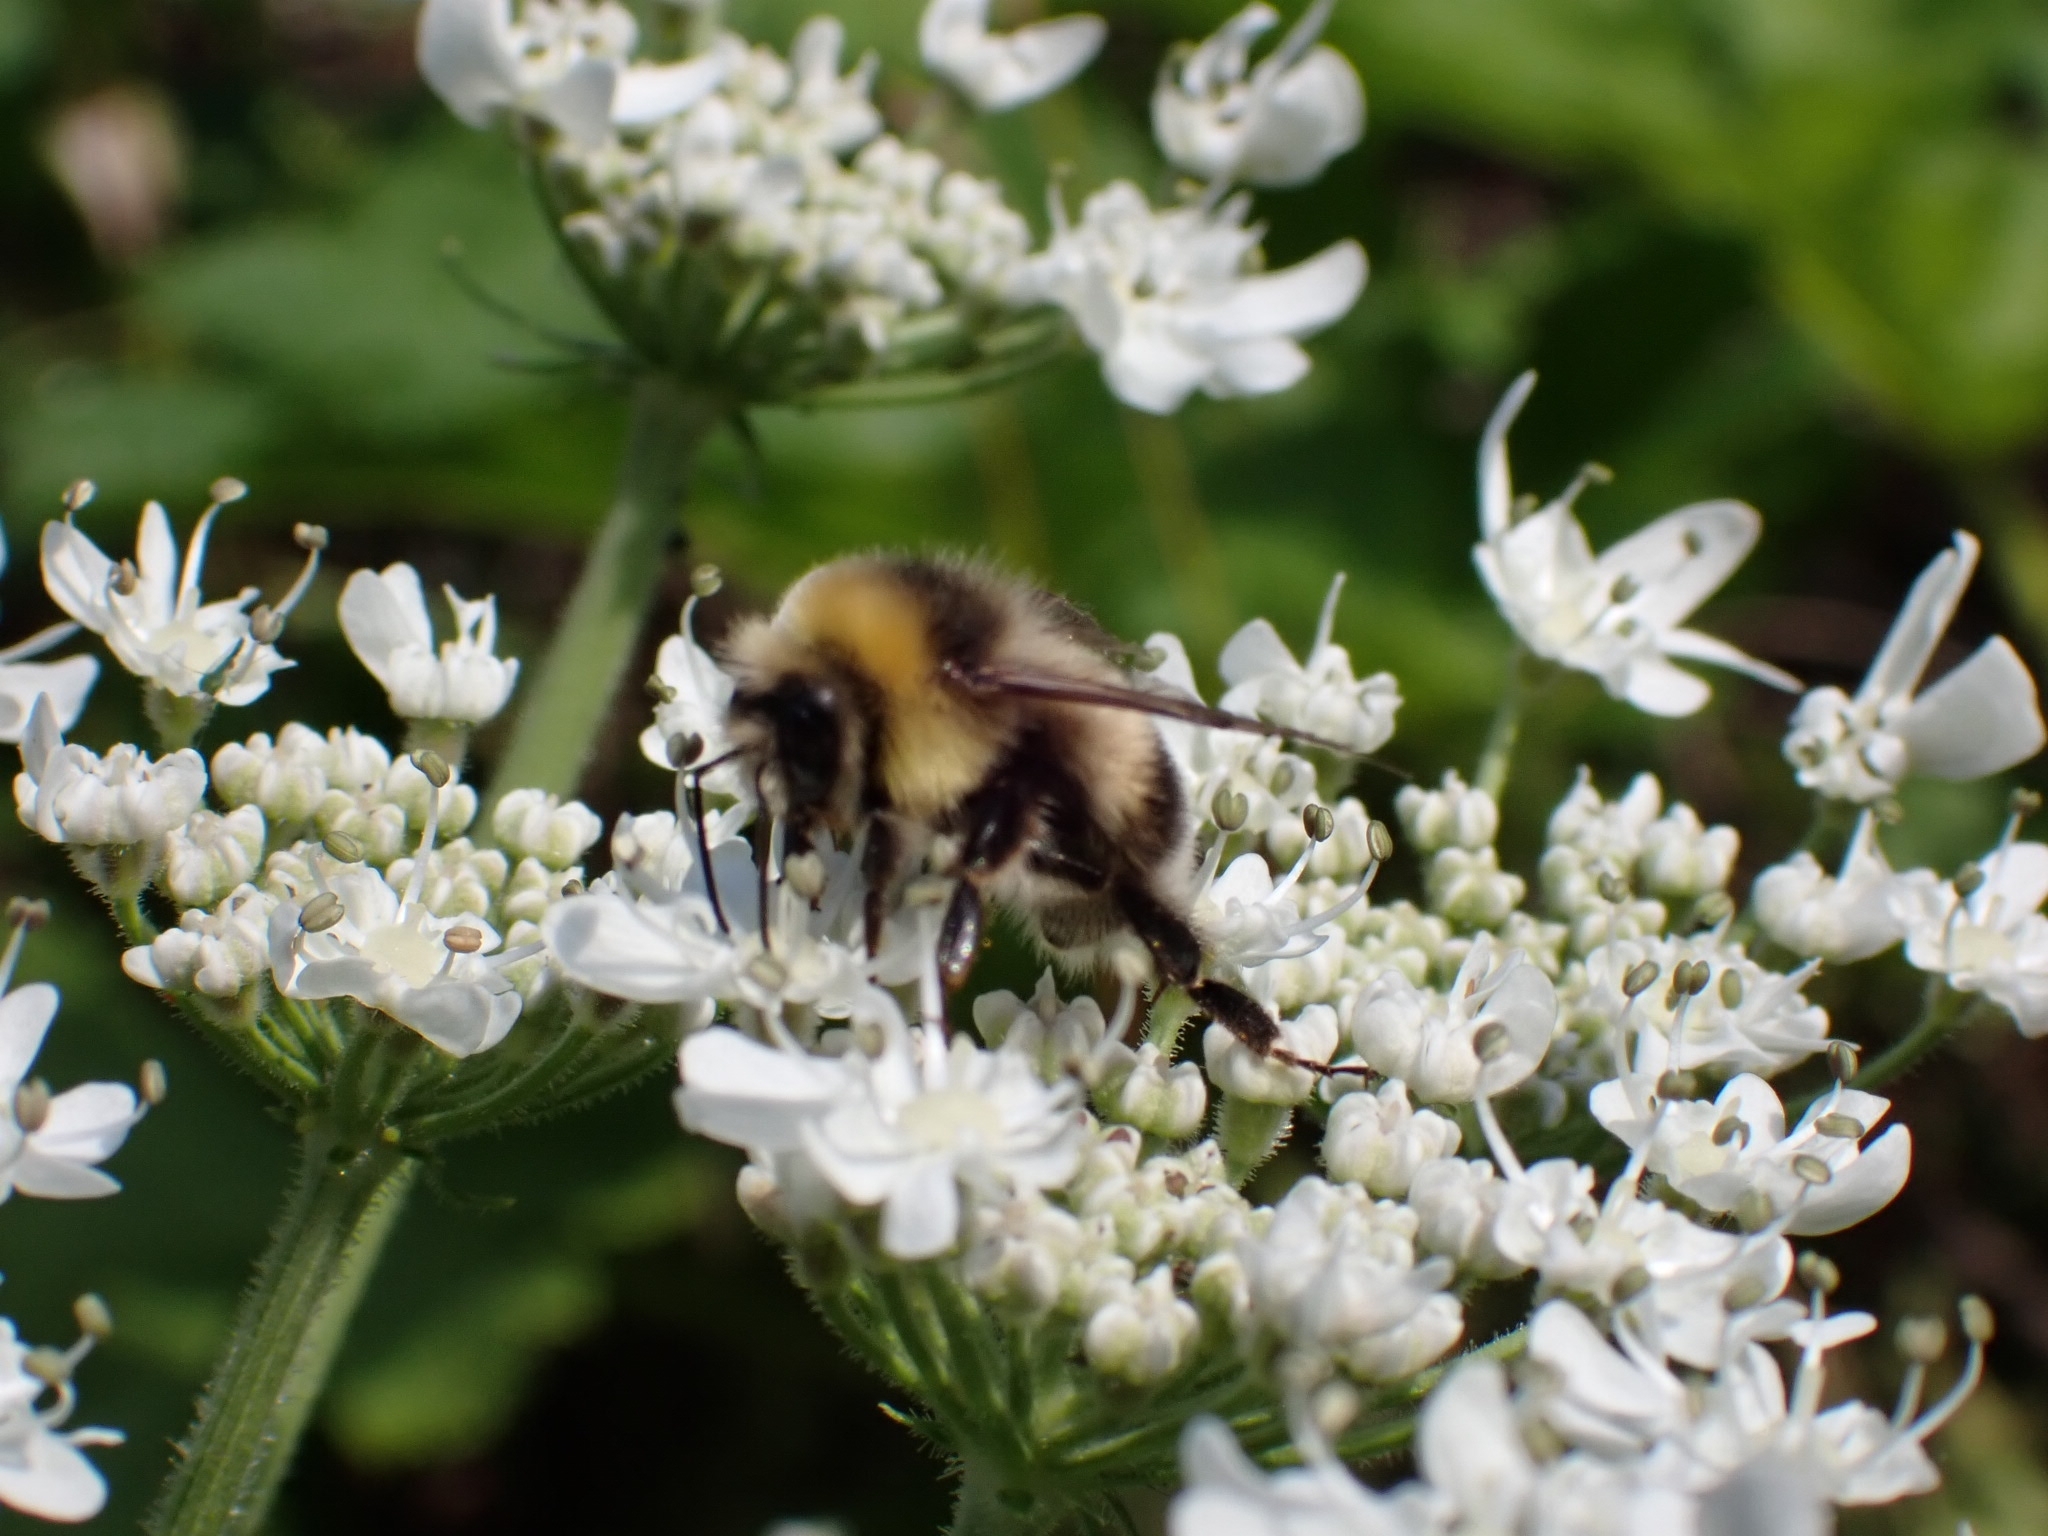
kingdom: Animalia
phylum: Arthropoda
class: Insecta
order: Hymenoptera
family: Apidae
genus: Bombus
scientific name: Bombus lucorum
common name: White-tailed bumblebee
